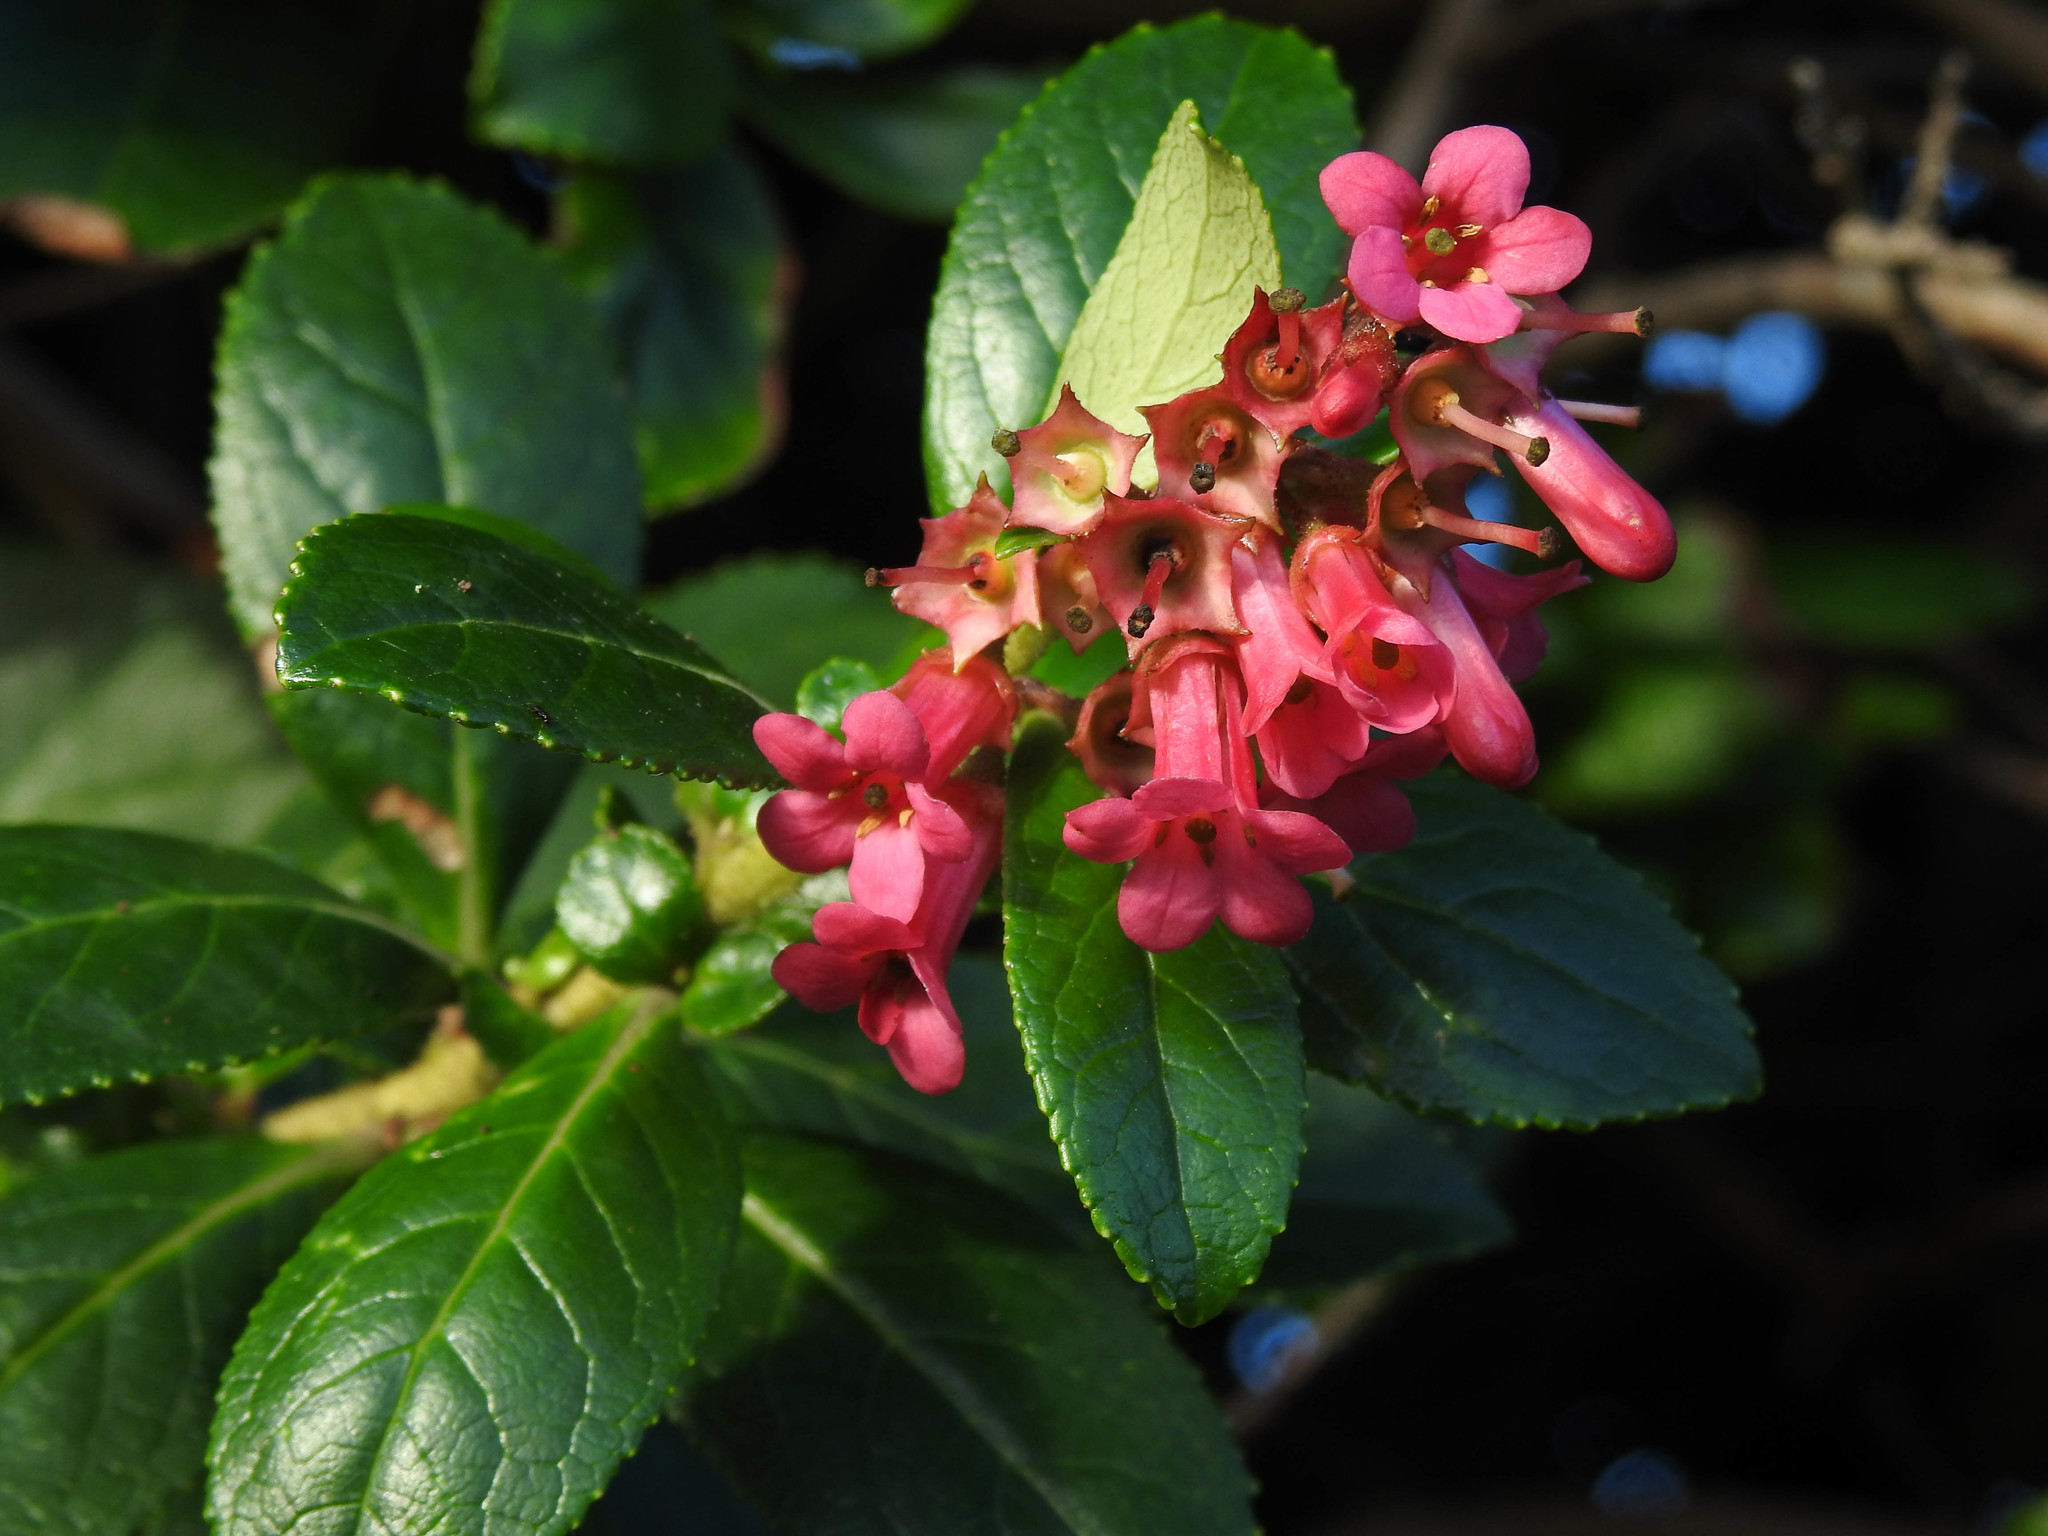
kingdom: Plantae
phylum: Tracheophyta
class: Magnoliopsida
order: Escalloniales
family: Escalloniaceae
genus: Escallonia
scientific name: Escallonia rubra
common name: Redclaws
